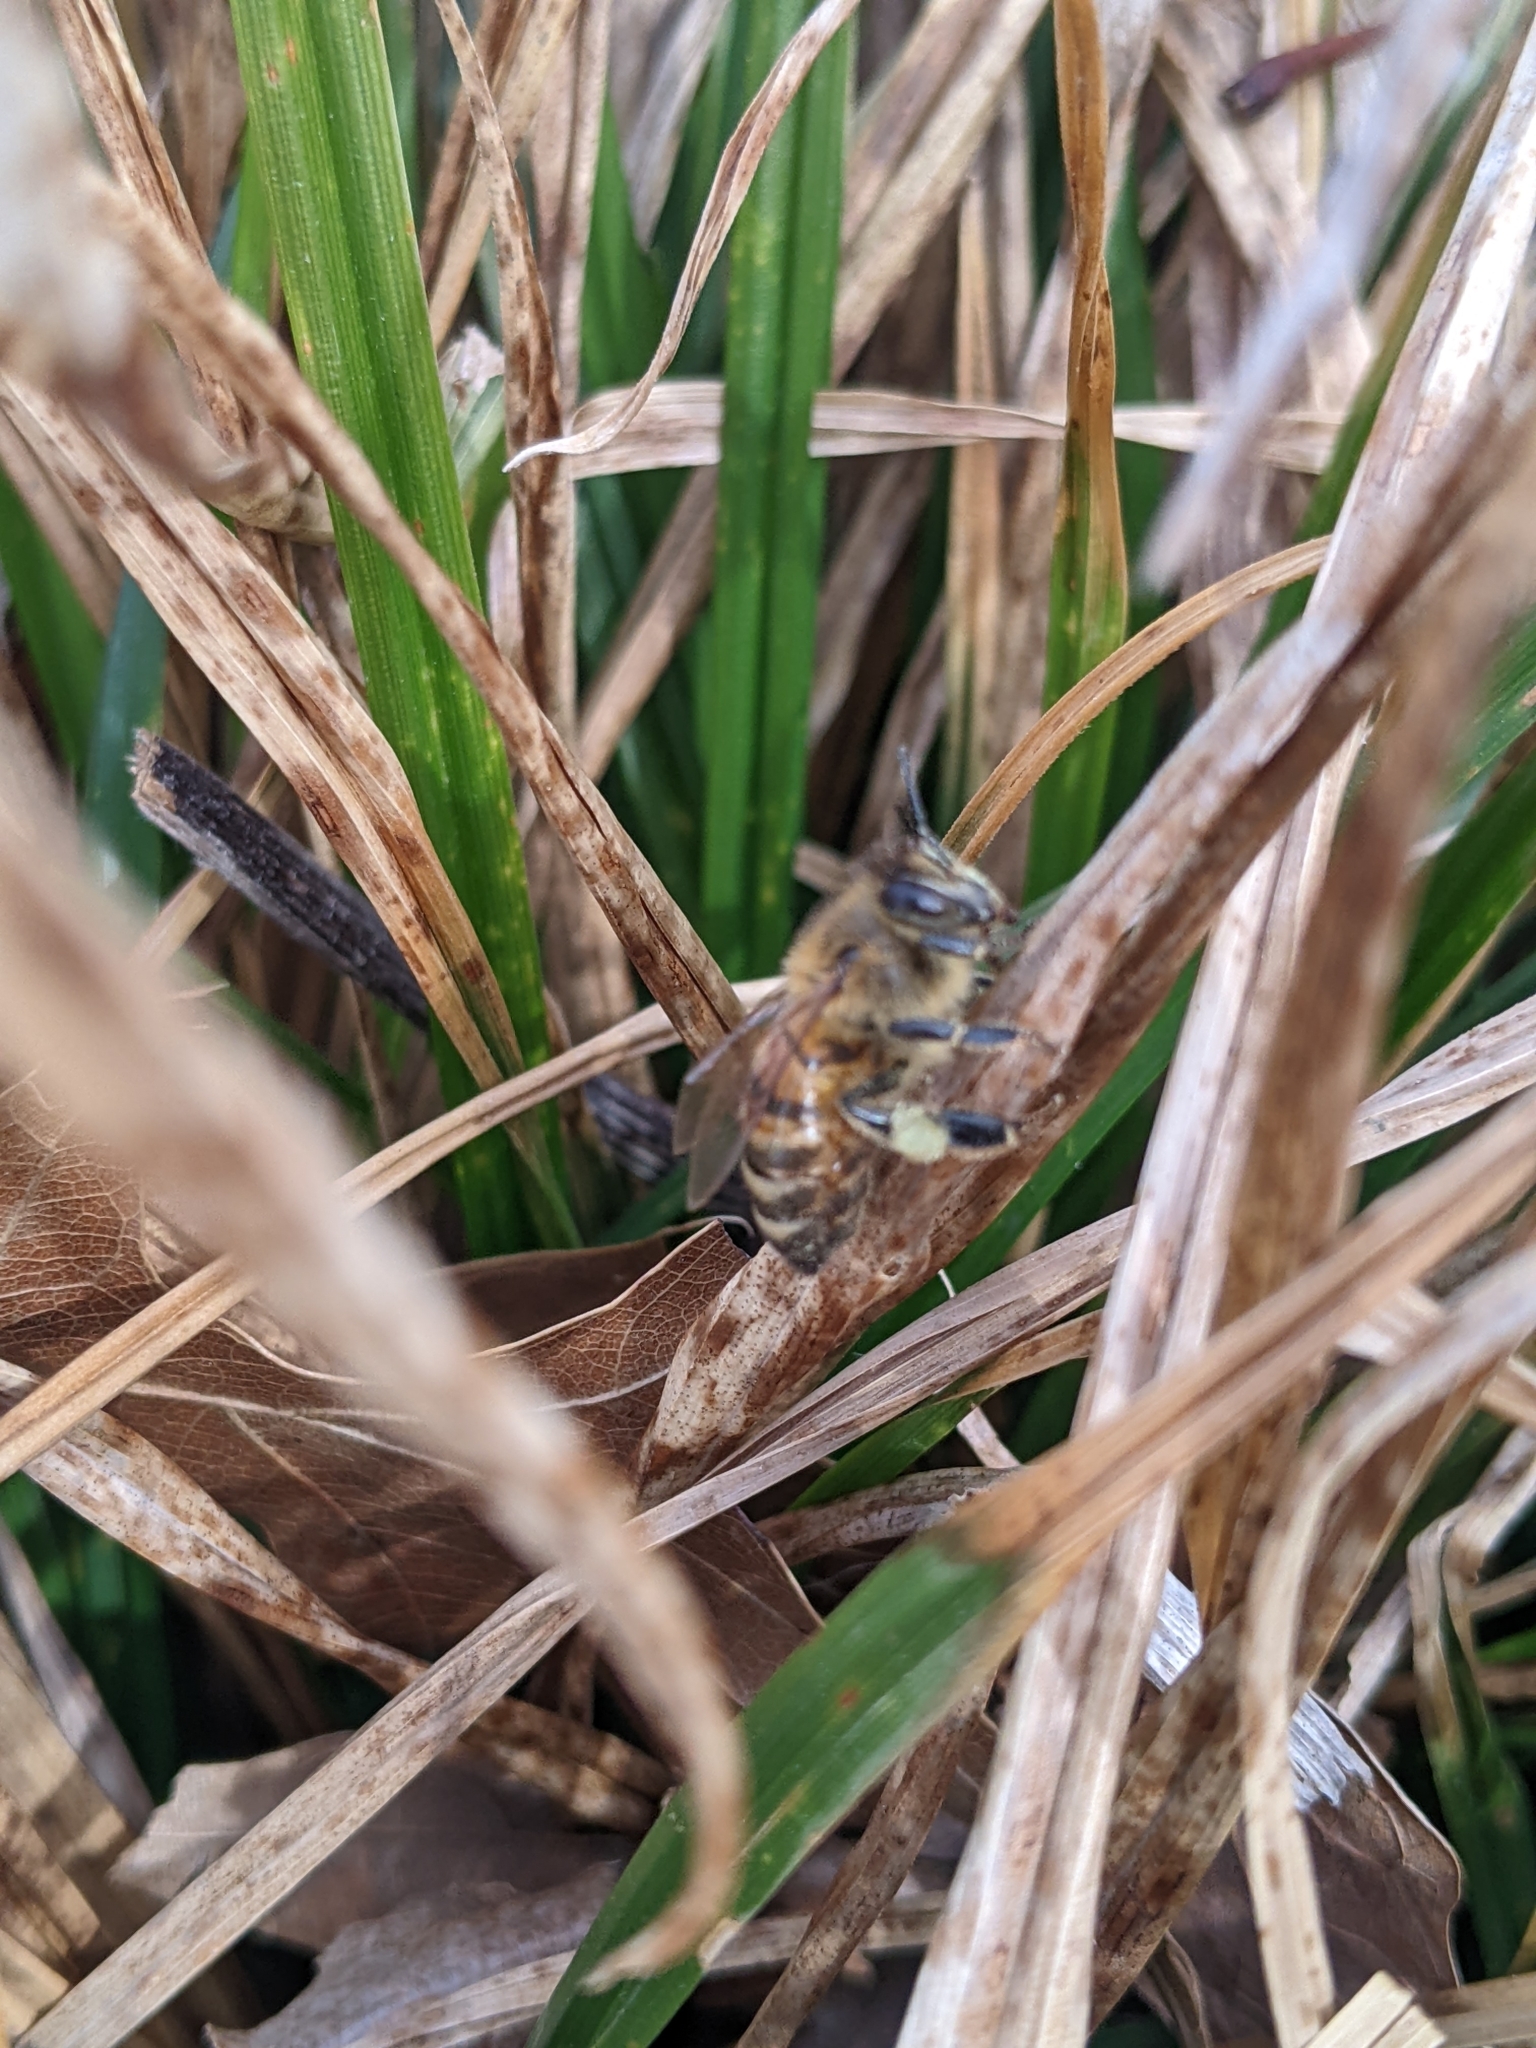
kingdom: Animalia
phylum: Arthropoda
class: Insecta
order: Hymenoptera
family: Apidae
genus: Apis
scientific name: Apis mellifera
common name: Honey bee
